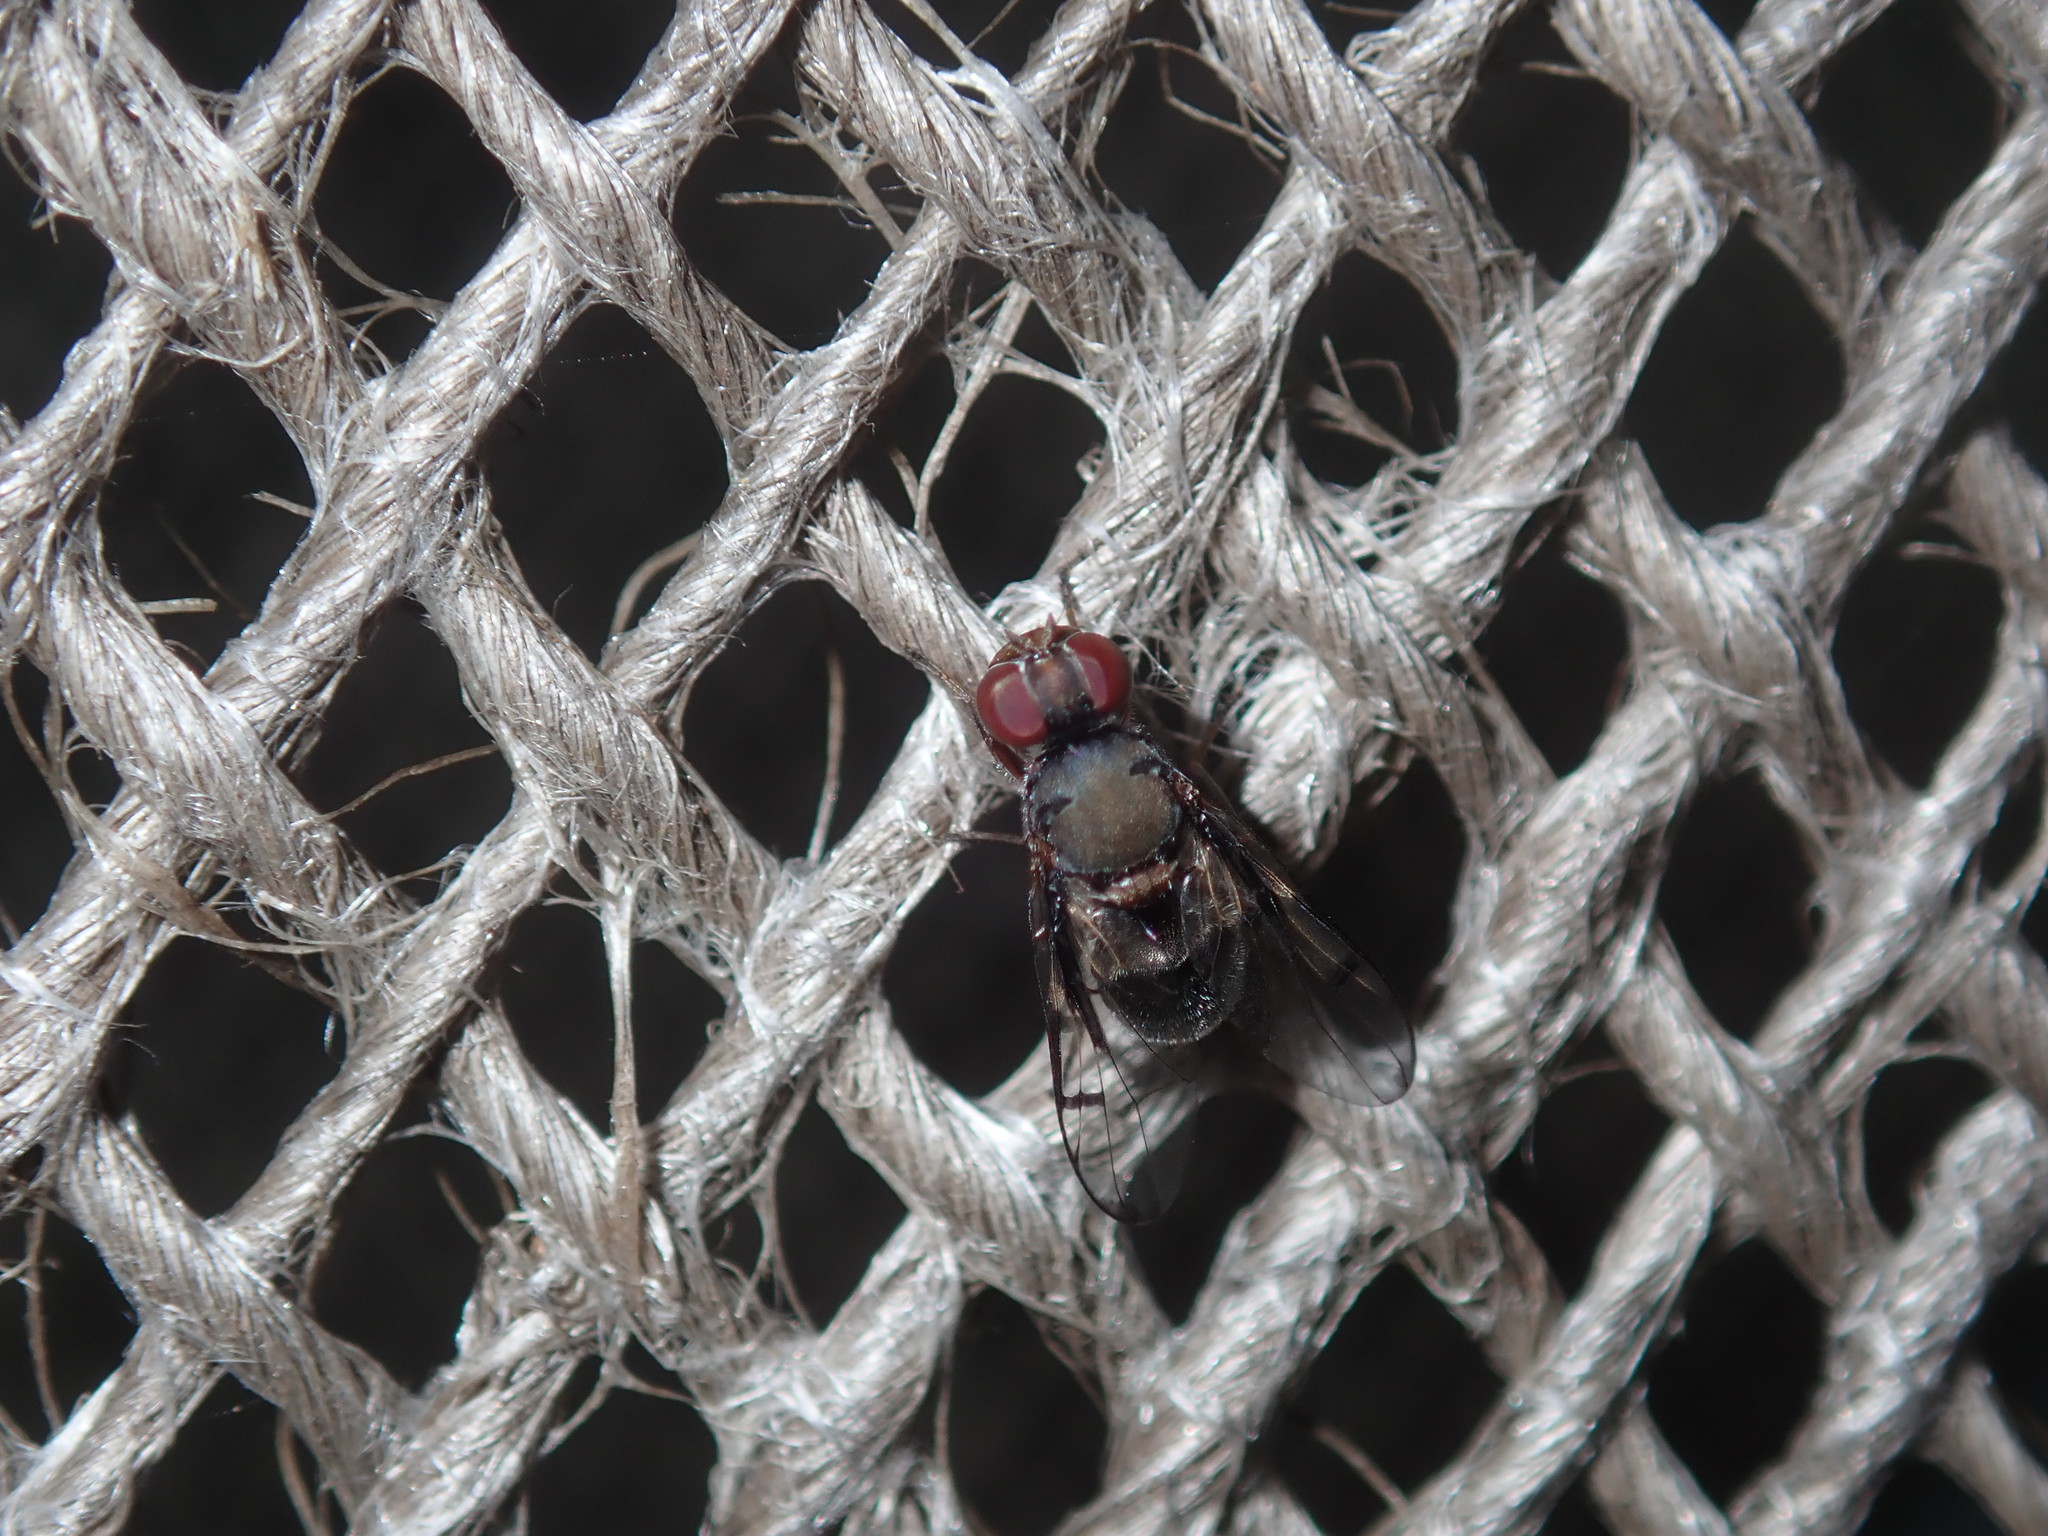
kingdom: Animalia
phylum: Arthropoda
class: Insecta
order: Diptera
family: Platystomatidae
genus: Pogonortalis
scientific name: Pogonortalis doclea
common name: Boatman fly
